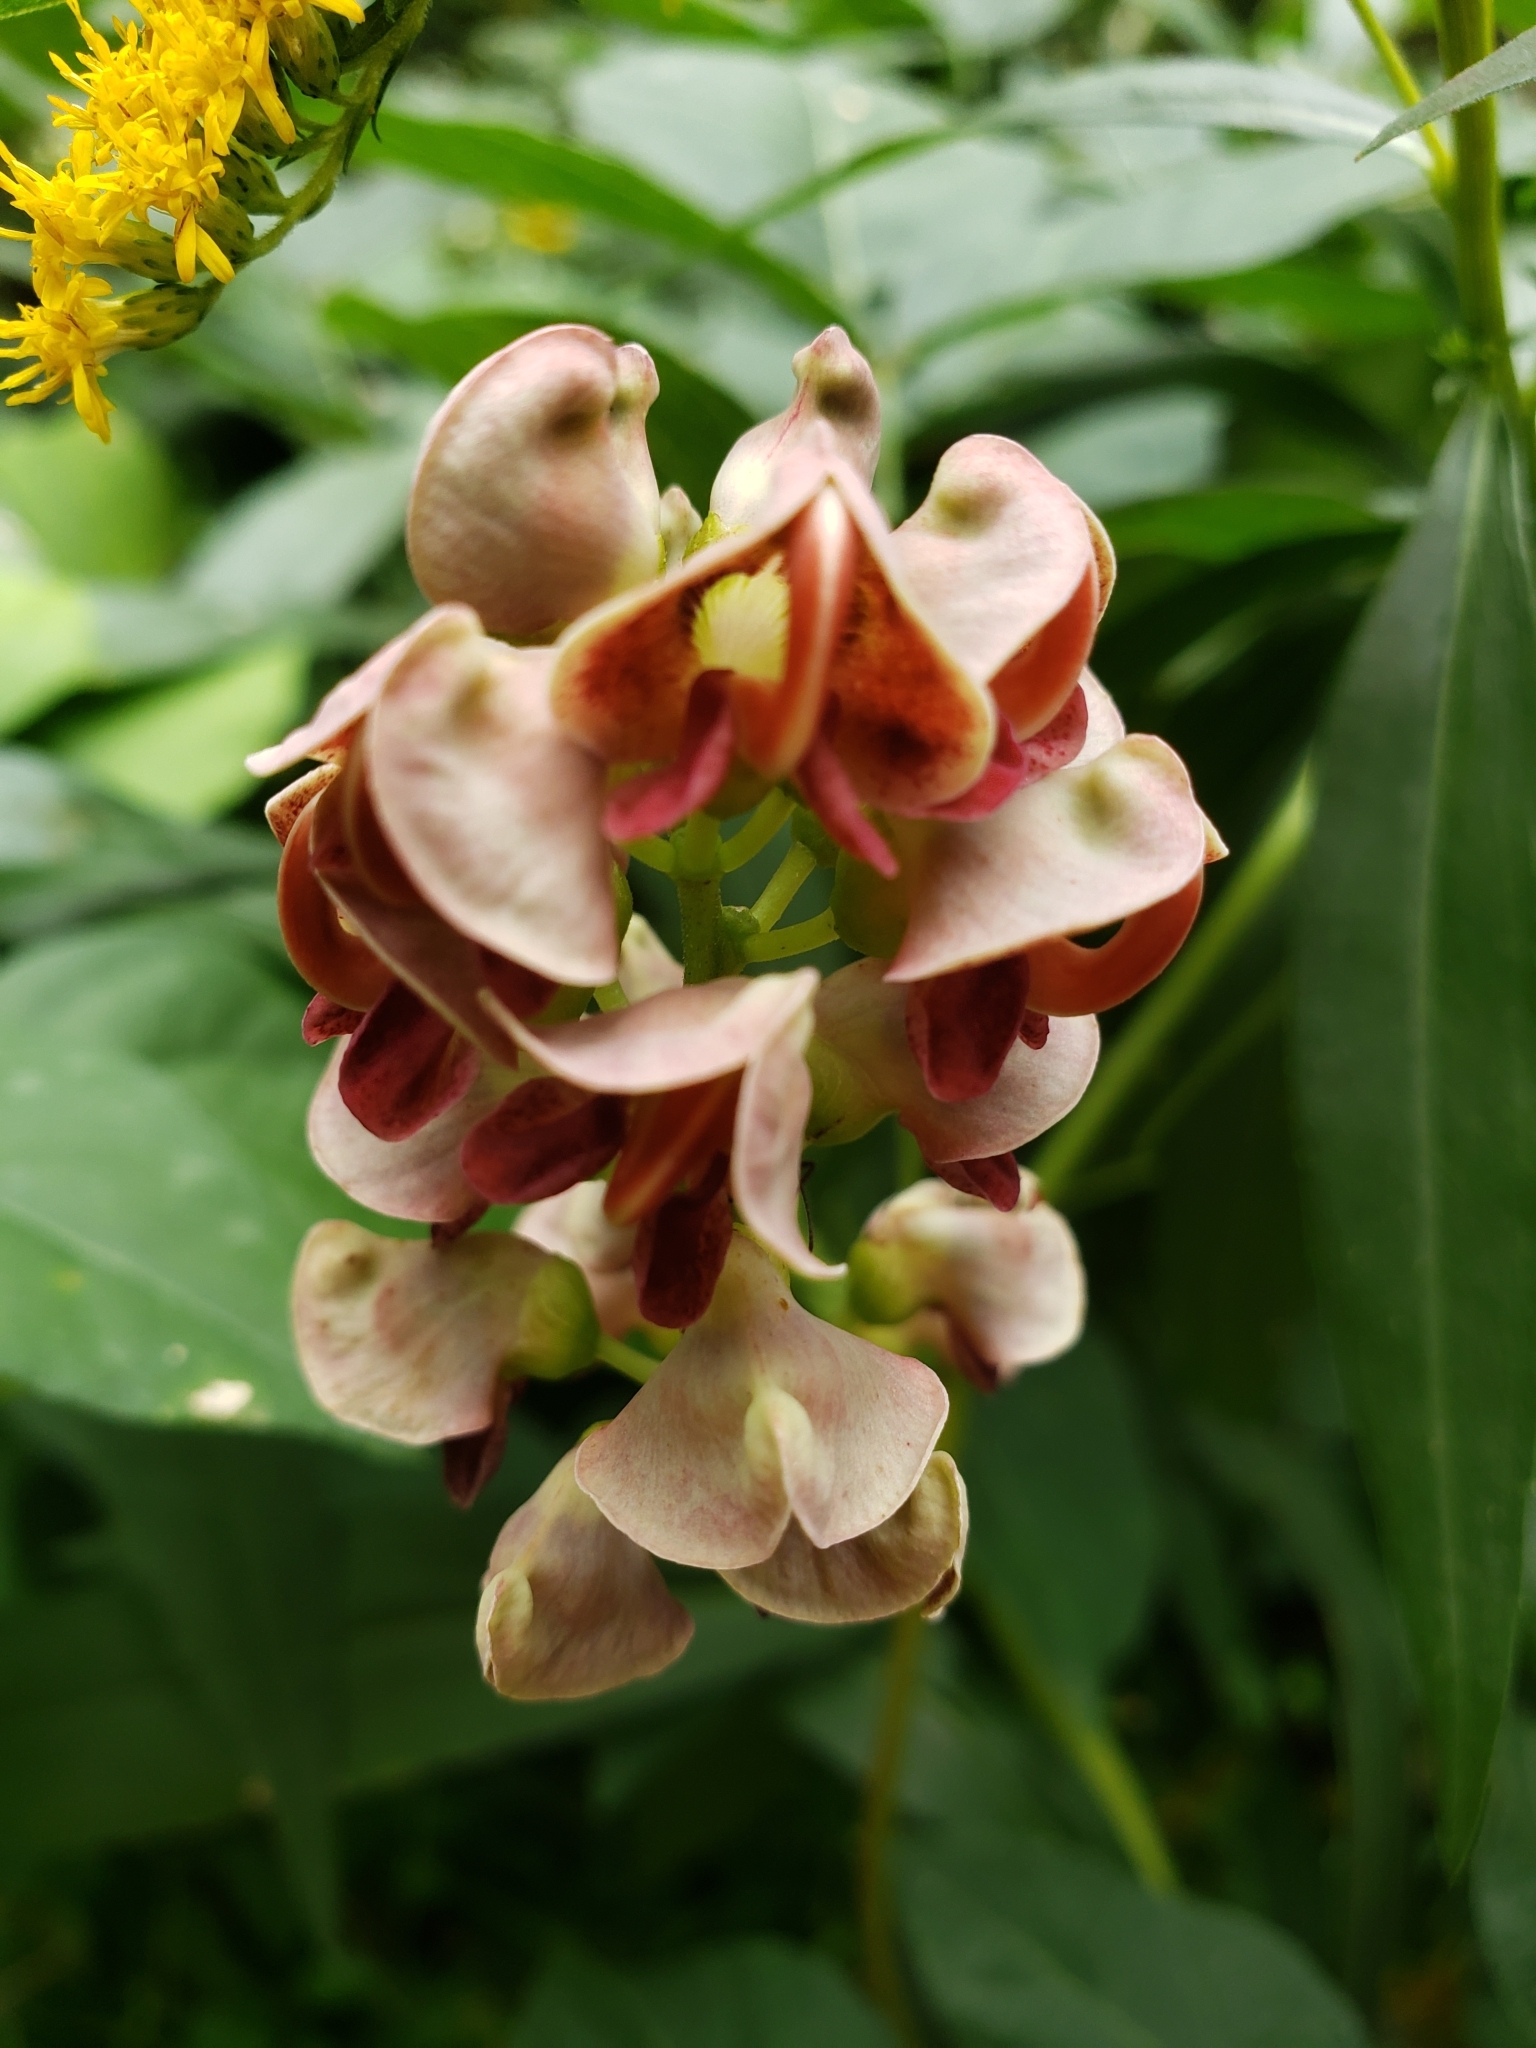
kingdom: Plantae
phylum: Tracheophyta
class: Magnoliopsida
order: Fabales
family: Fabaceae
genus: Apios
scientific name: Apios americana
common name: American potato-bean
